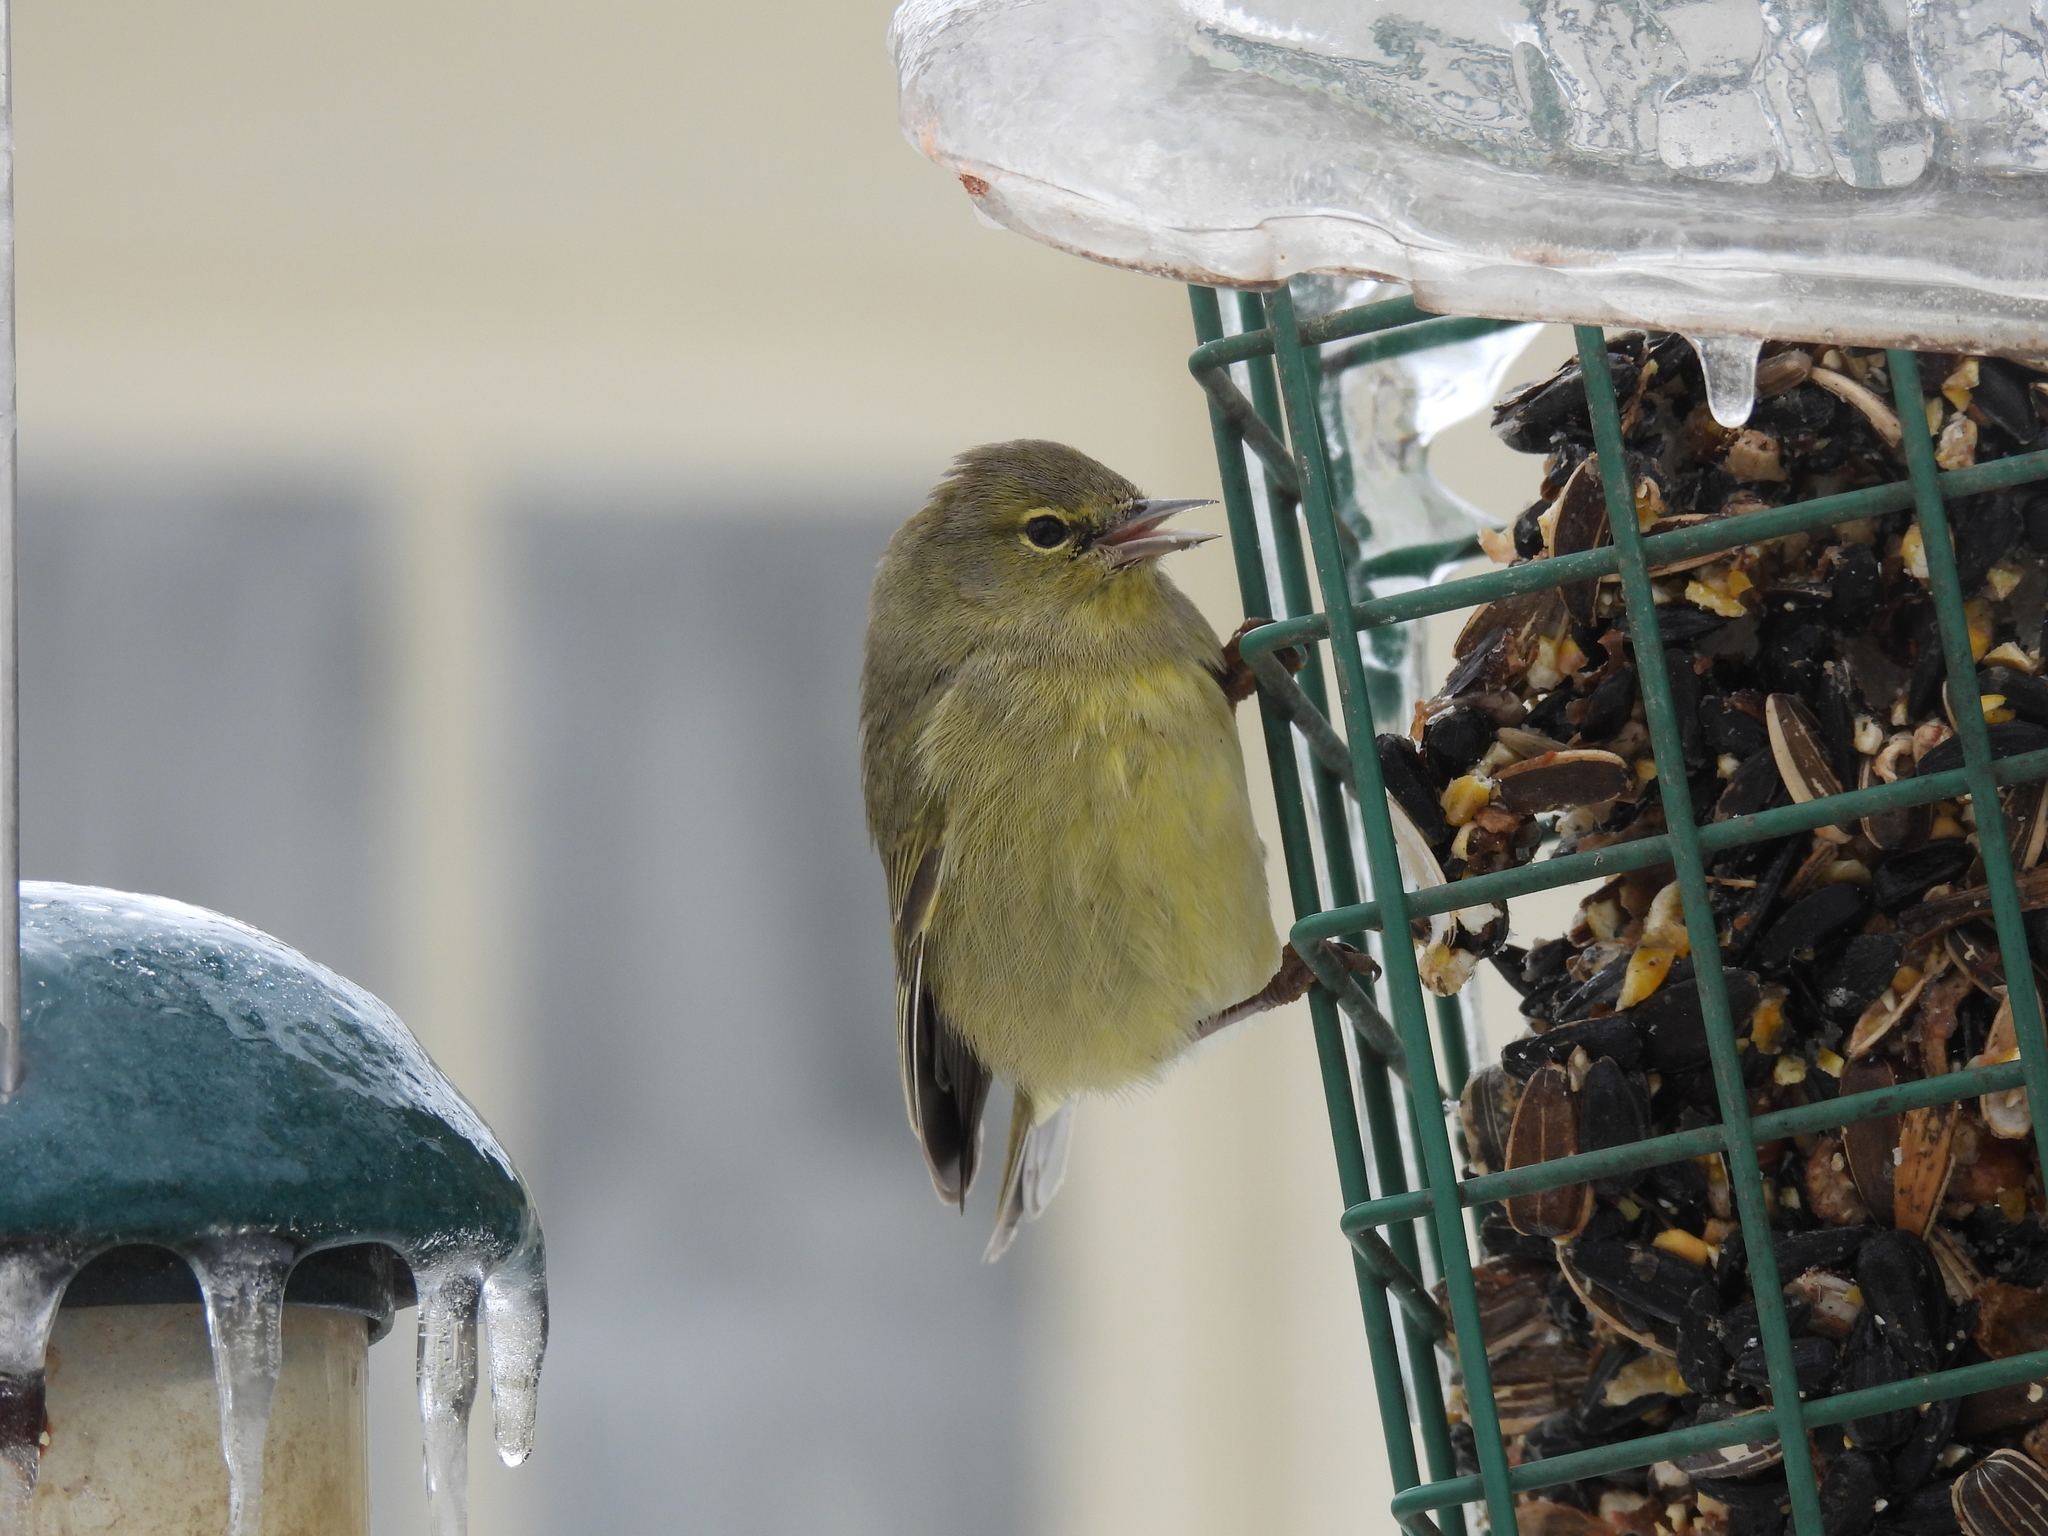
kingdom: Animalia
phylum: Chordata
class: Aves
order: Passeriformes
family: Parulidae
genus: Leiothlypis
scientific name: Leiothlypis celata
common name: Orange-crowned warbler
